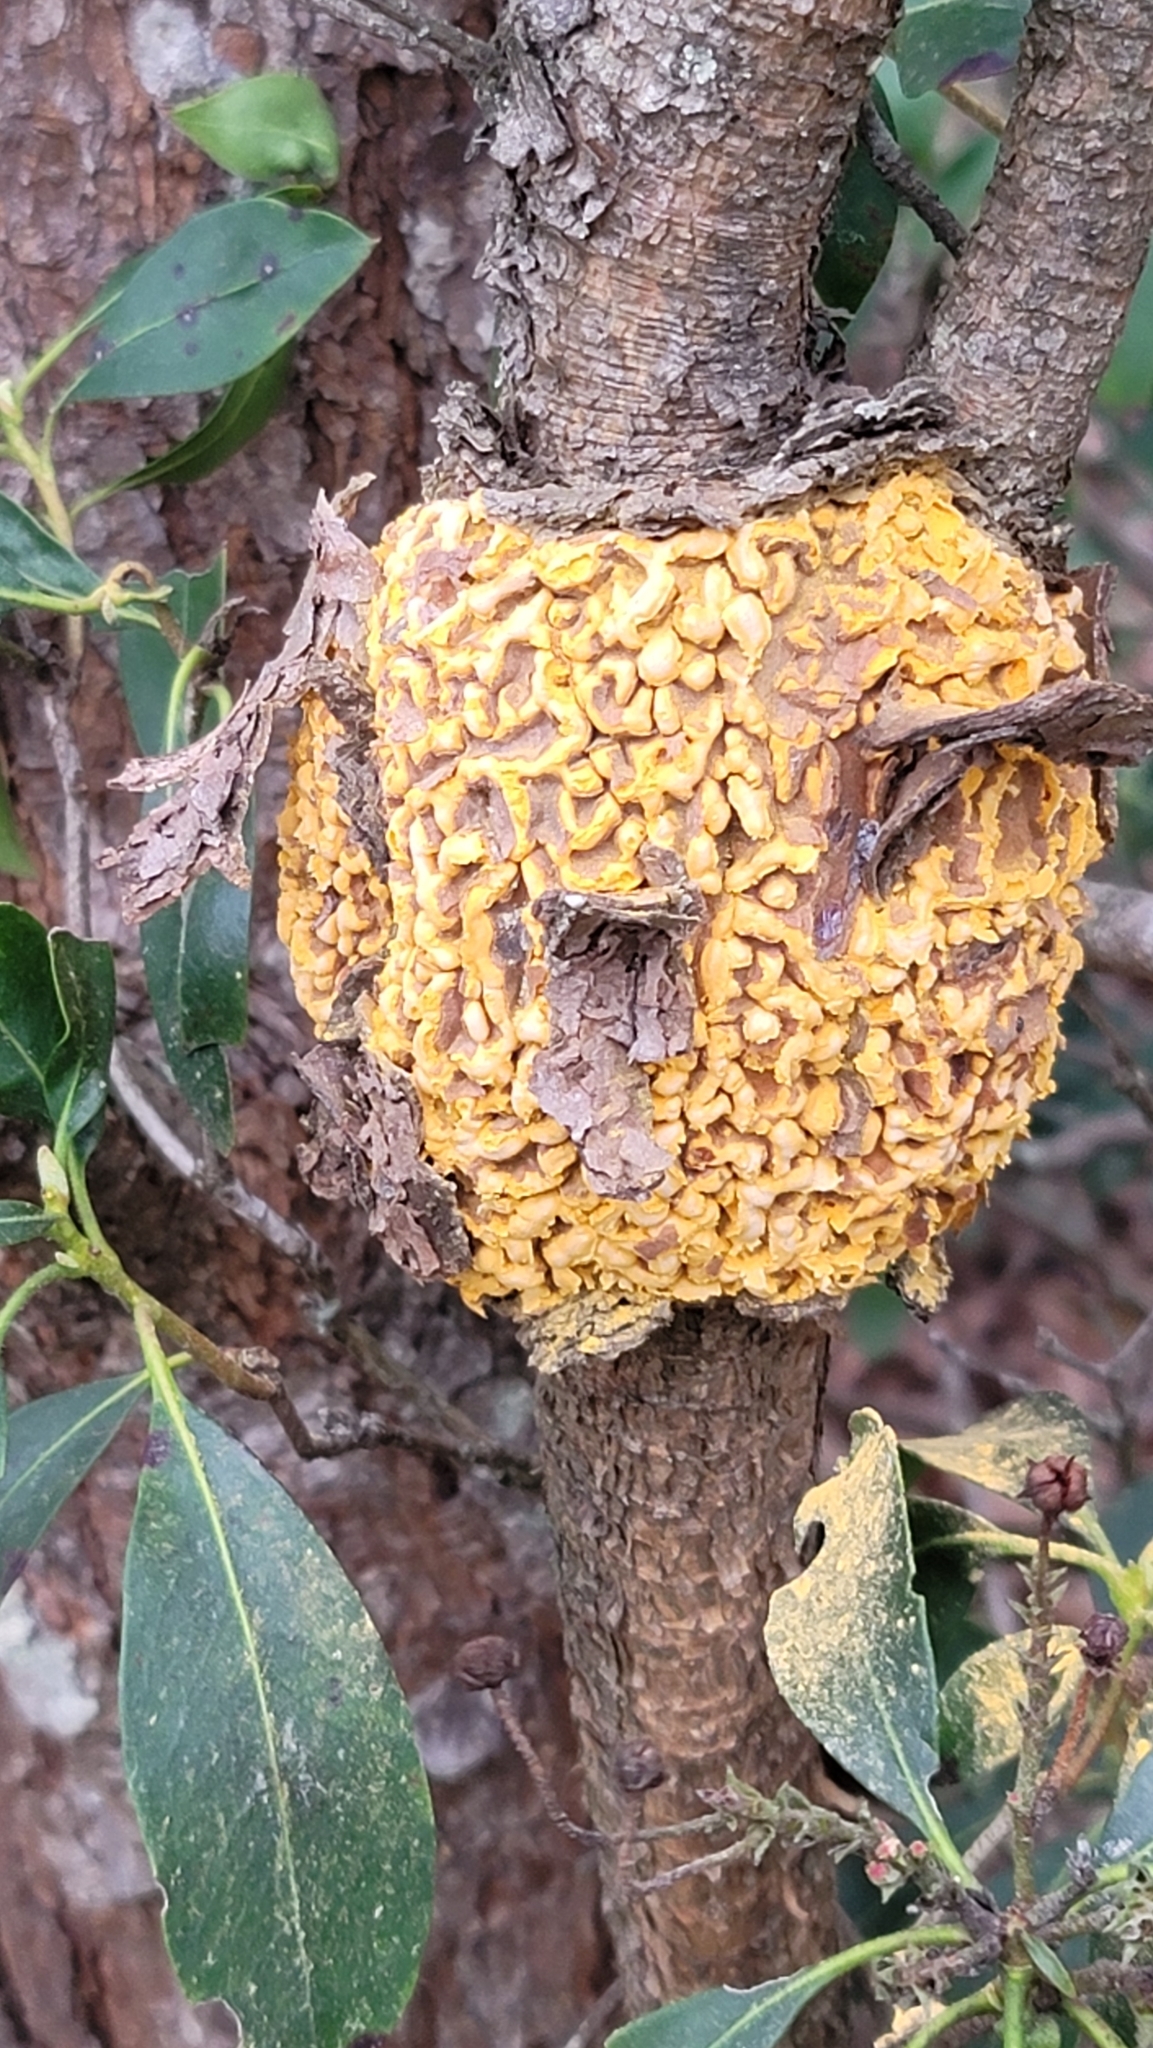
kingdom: Fungi
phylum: Basidiomycota
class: Pucciniomycetes
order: Pucciniales
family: Cronartiaceae
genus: Cronartium
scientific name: Cronartium quercuum
